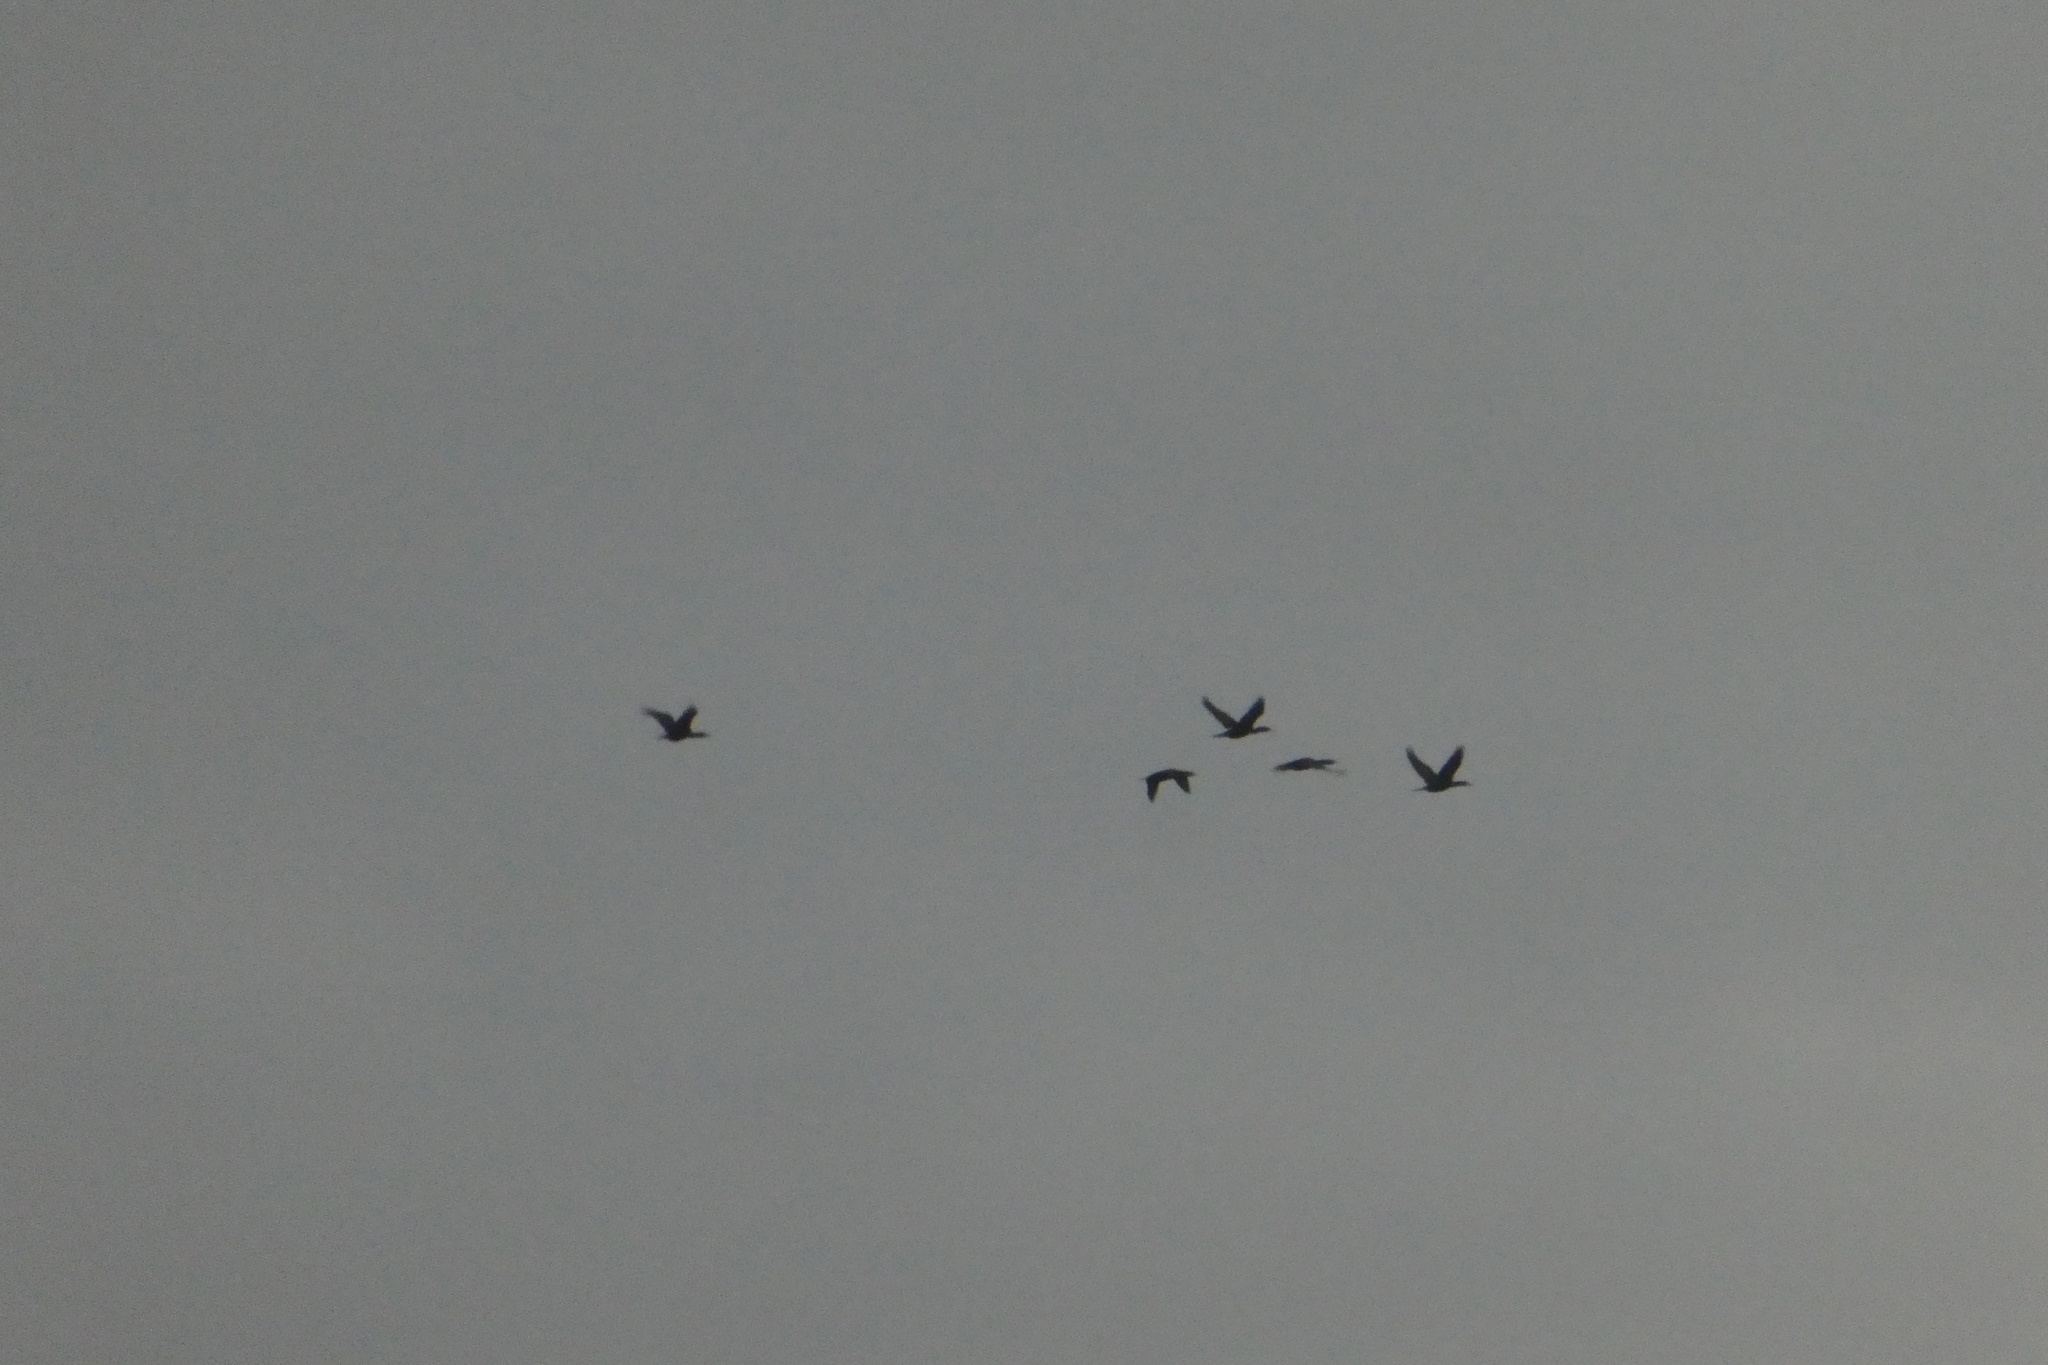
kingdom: Animalia
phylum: Chordata
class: Aves
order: Anseriformes
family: Anatidae
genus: Branta
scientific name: Branta canadensis
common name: Canada goose
